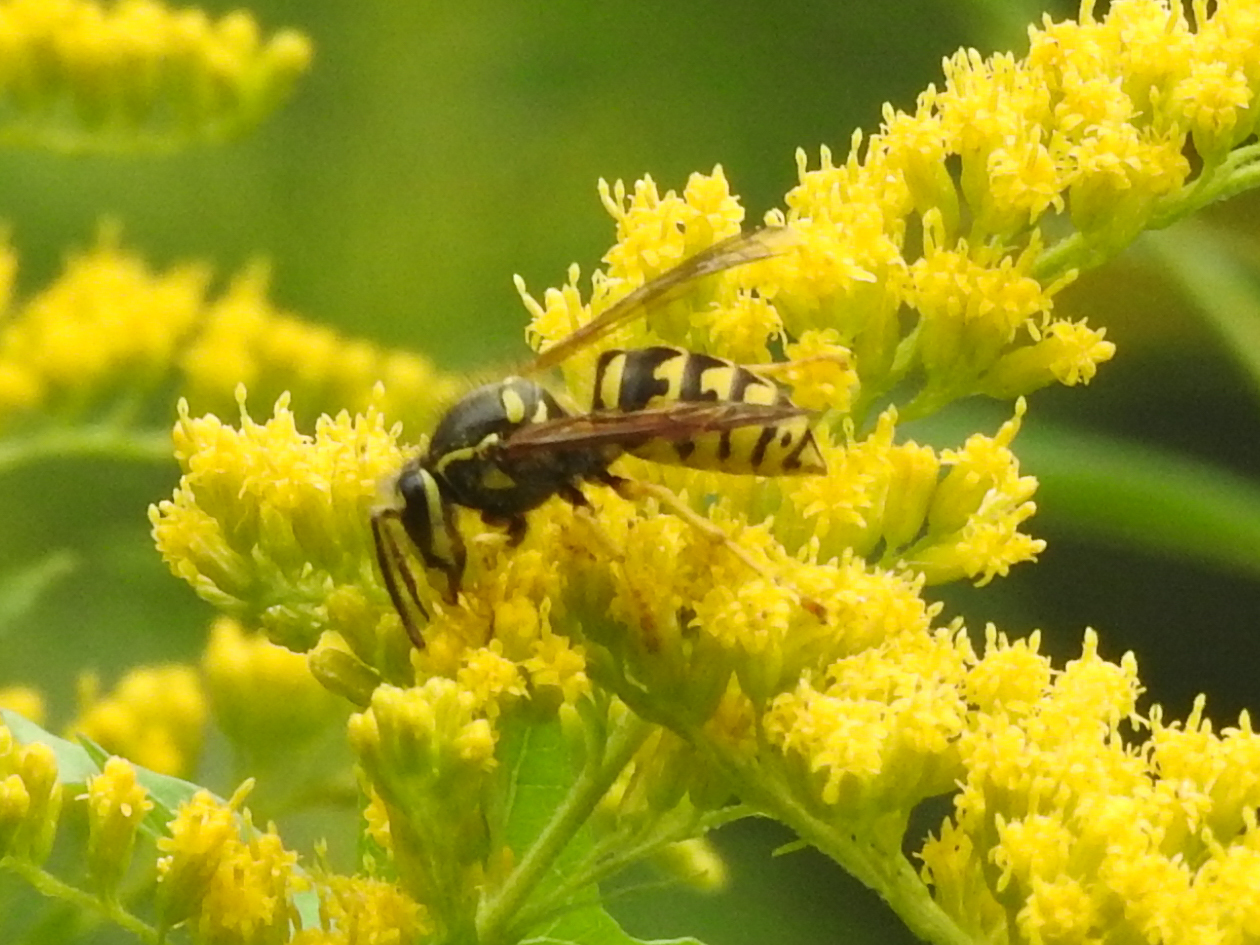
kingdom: Animalia
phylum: Arthropoda
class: Insecta
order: Hymenoptera
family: Vespidae
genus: Dolichovespula
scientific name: Dolichovespula arenaria
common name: Aerial yellowjacket
